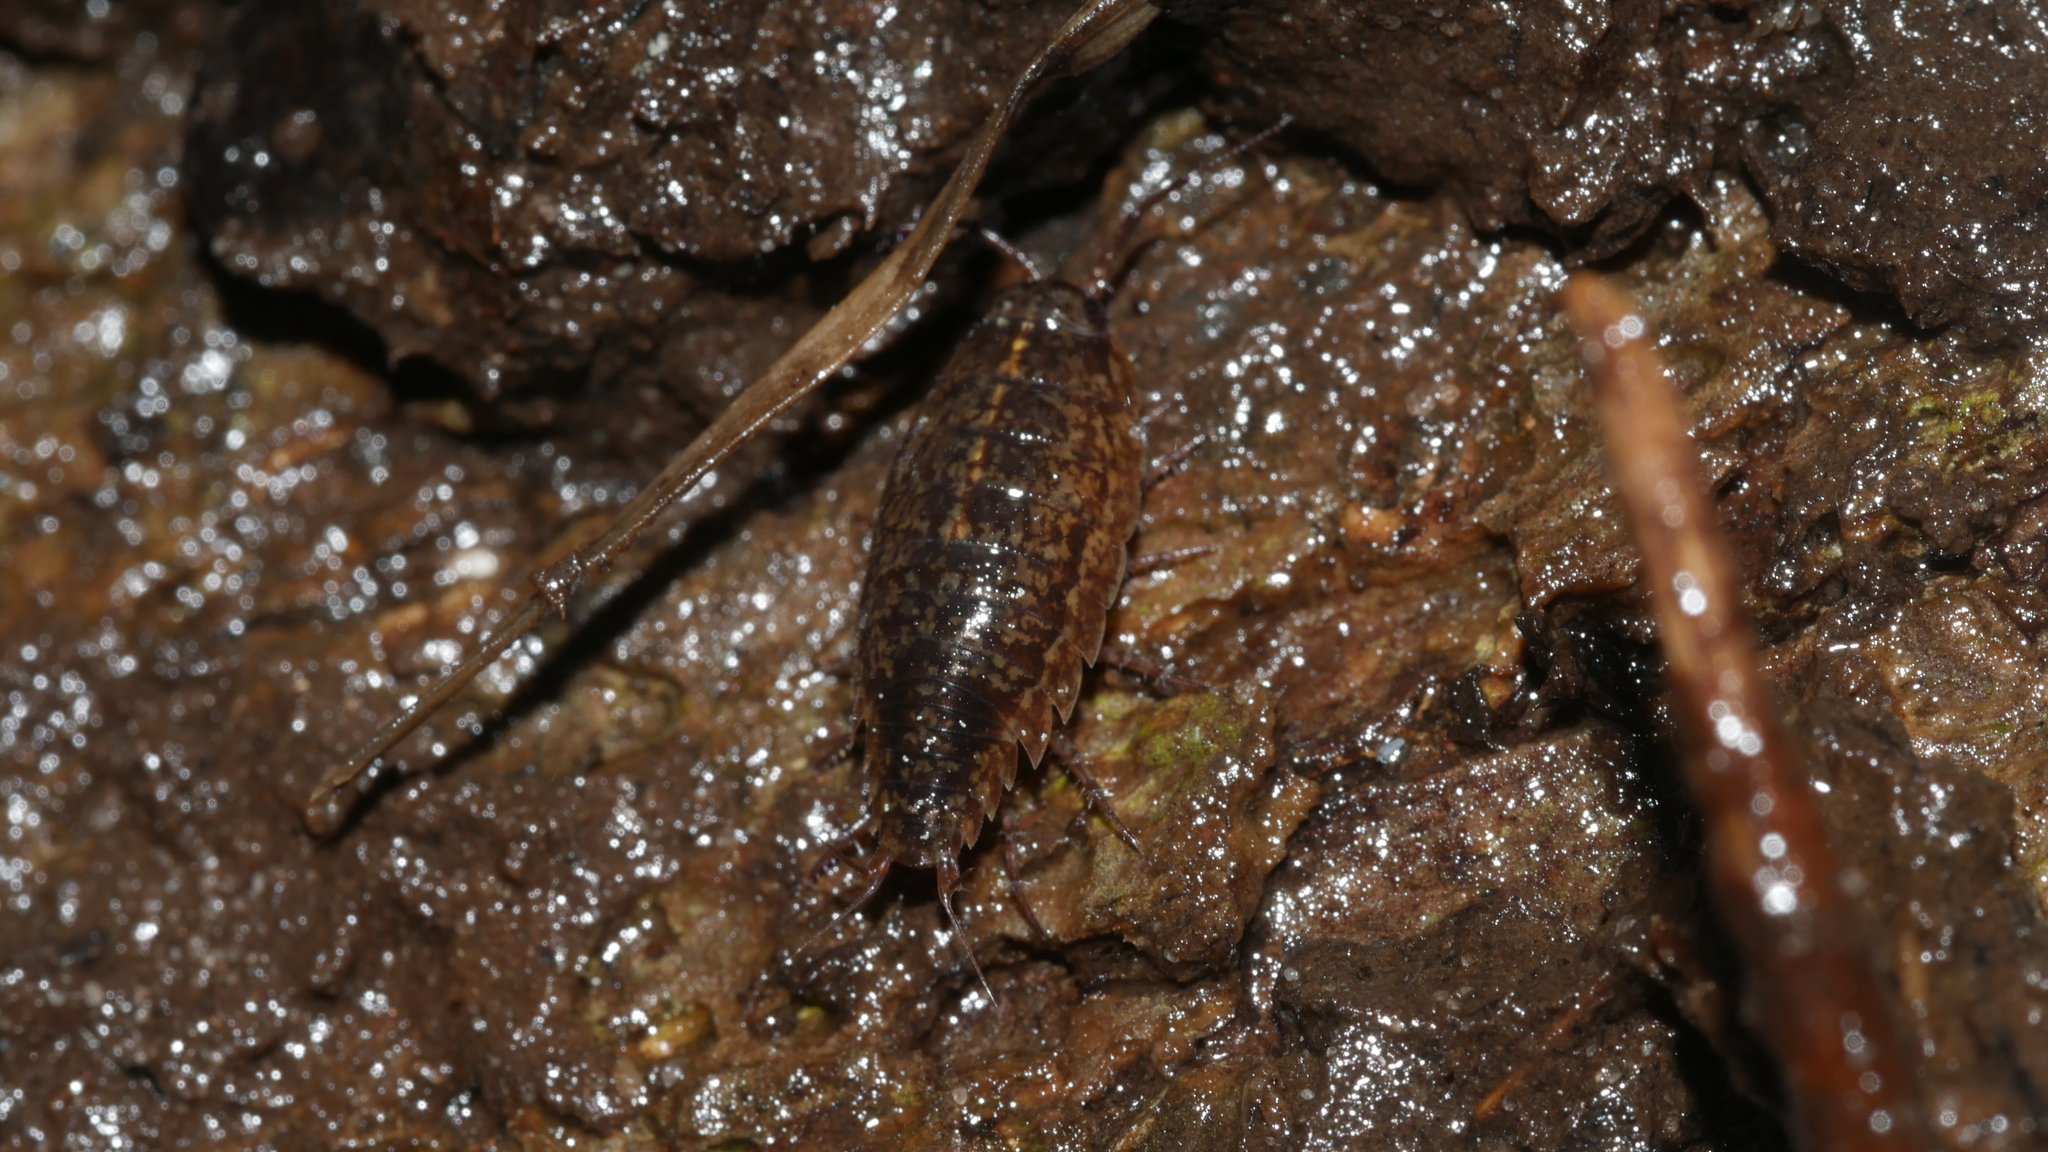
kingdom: Animalia
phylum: Arthropoda
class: Malacostraca
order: Isopoda
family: Ligiidae
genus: Ligidium
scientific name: Ligidium elrodii
